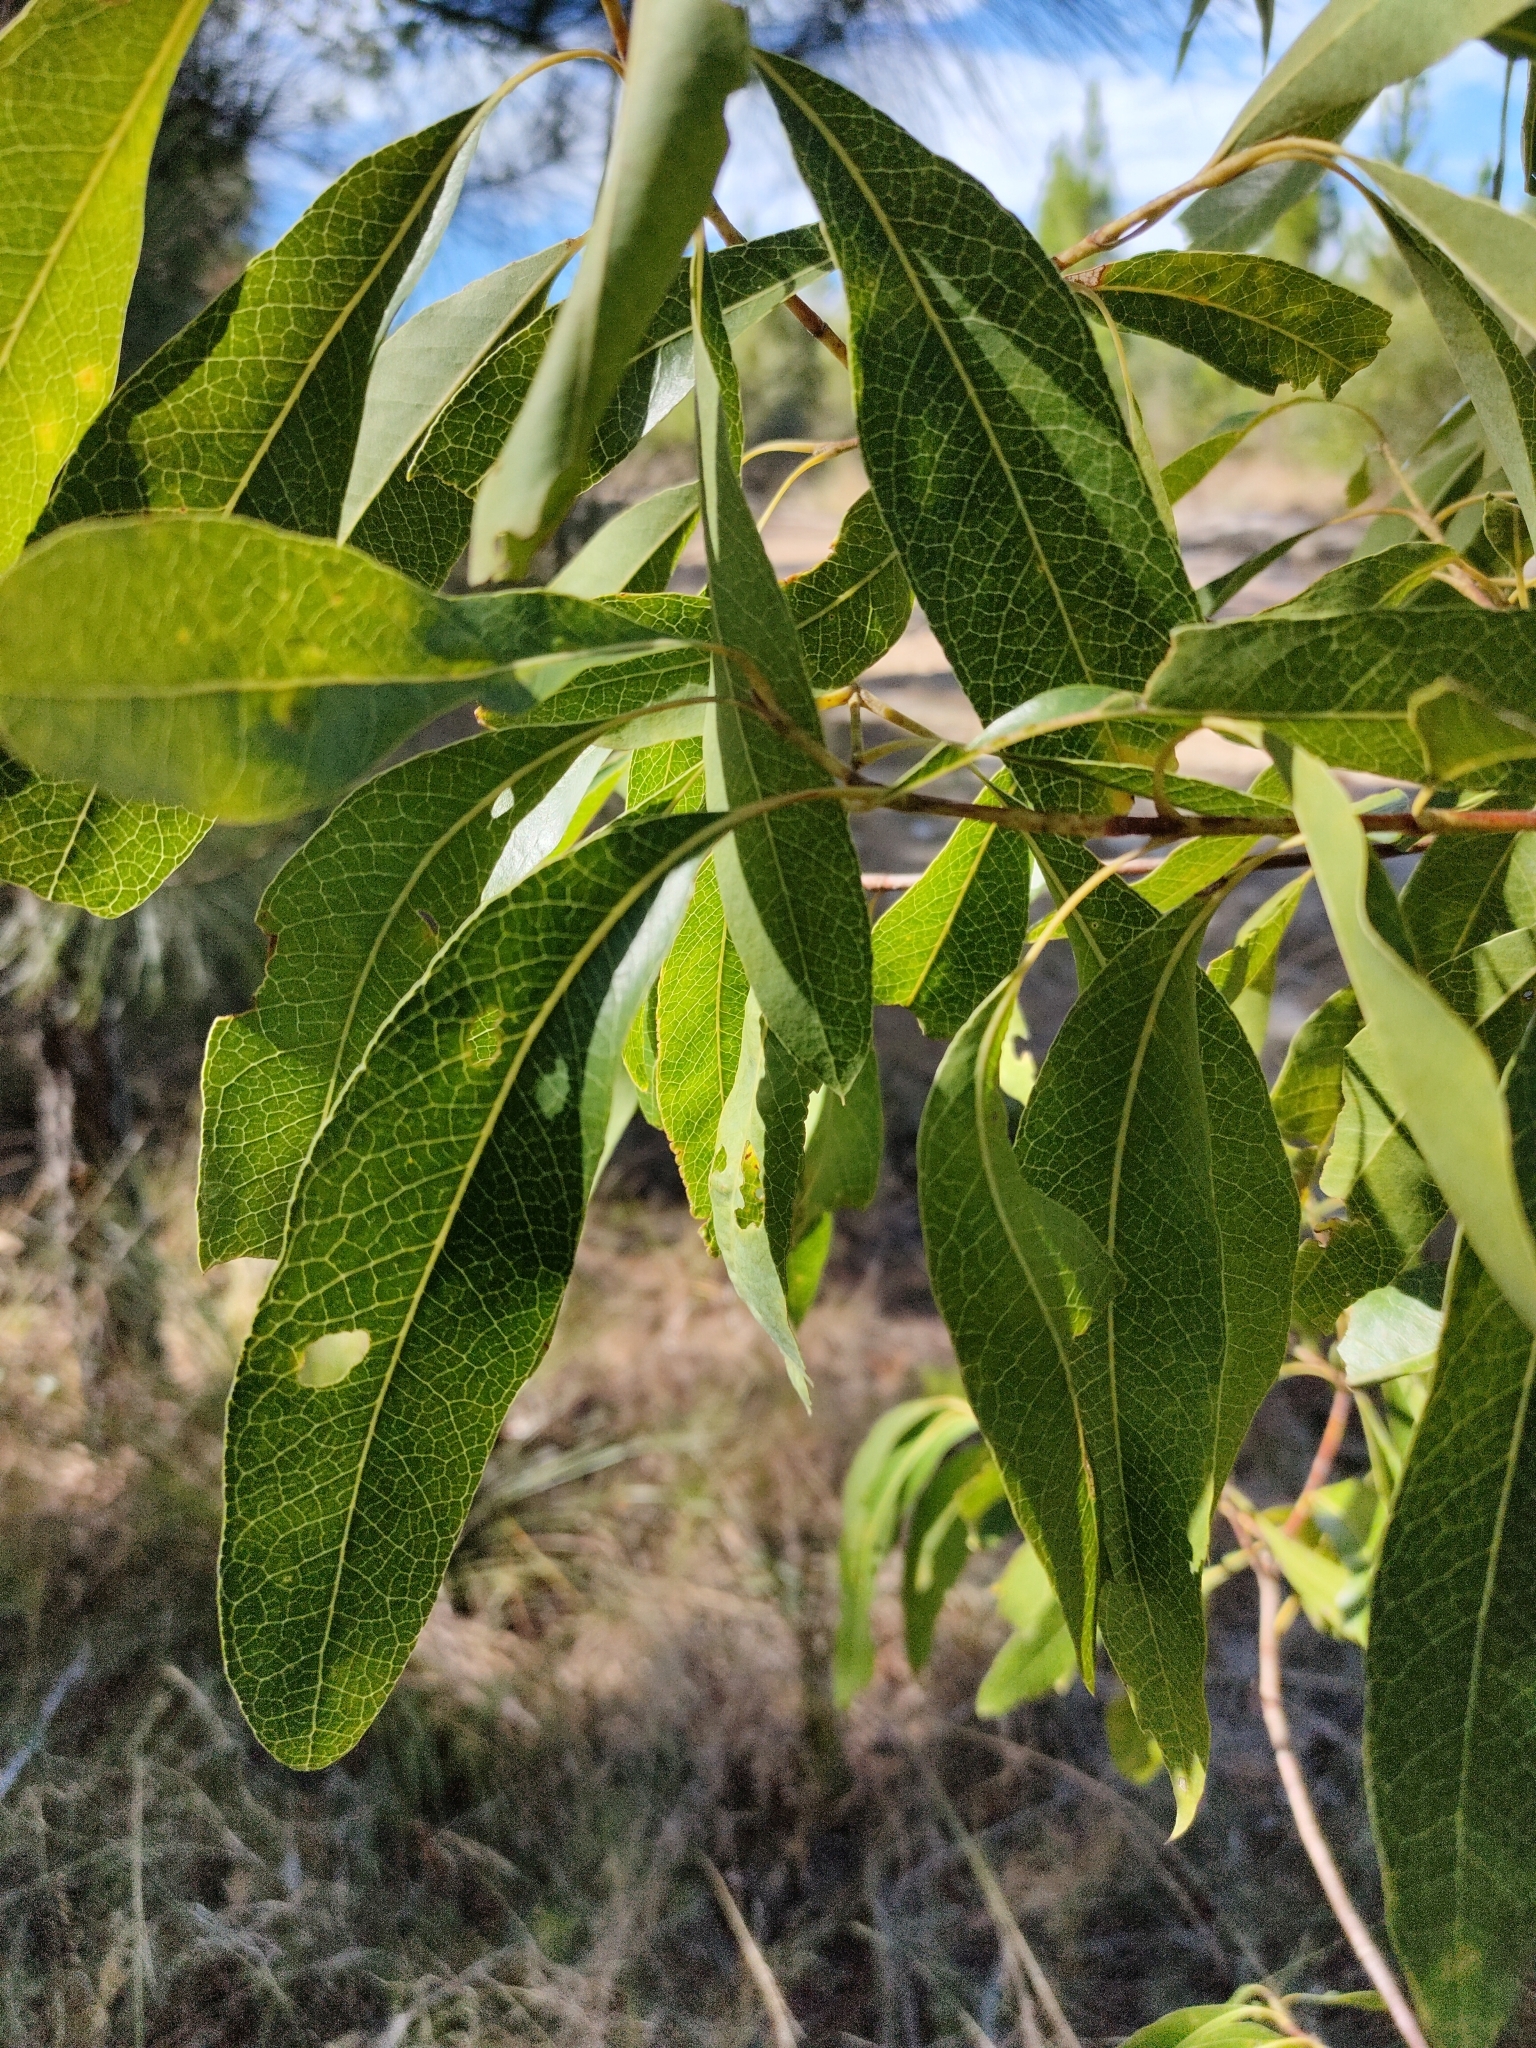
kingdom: Plantae
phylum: Tracheophyta
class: Magnoliopsida
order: Proteales
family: Proteaceae
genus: Xylomelum
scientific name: Xylomelum salicinum
